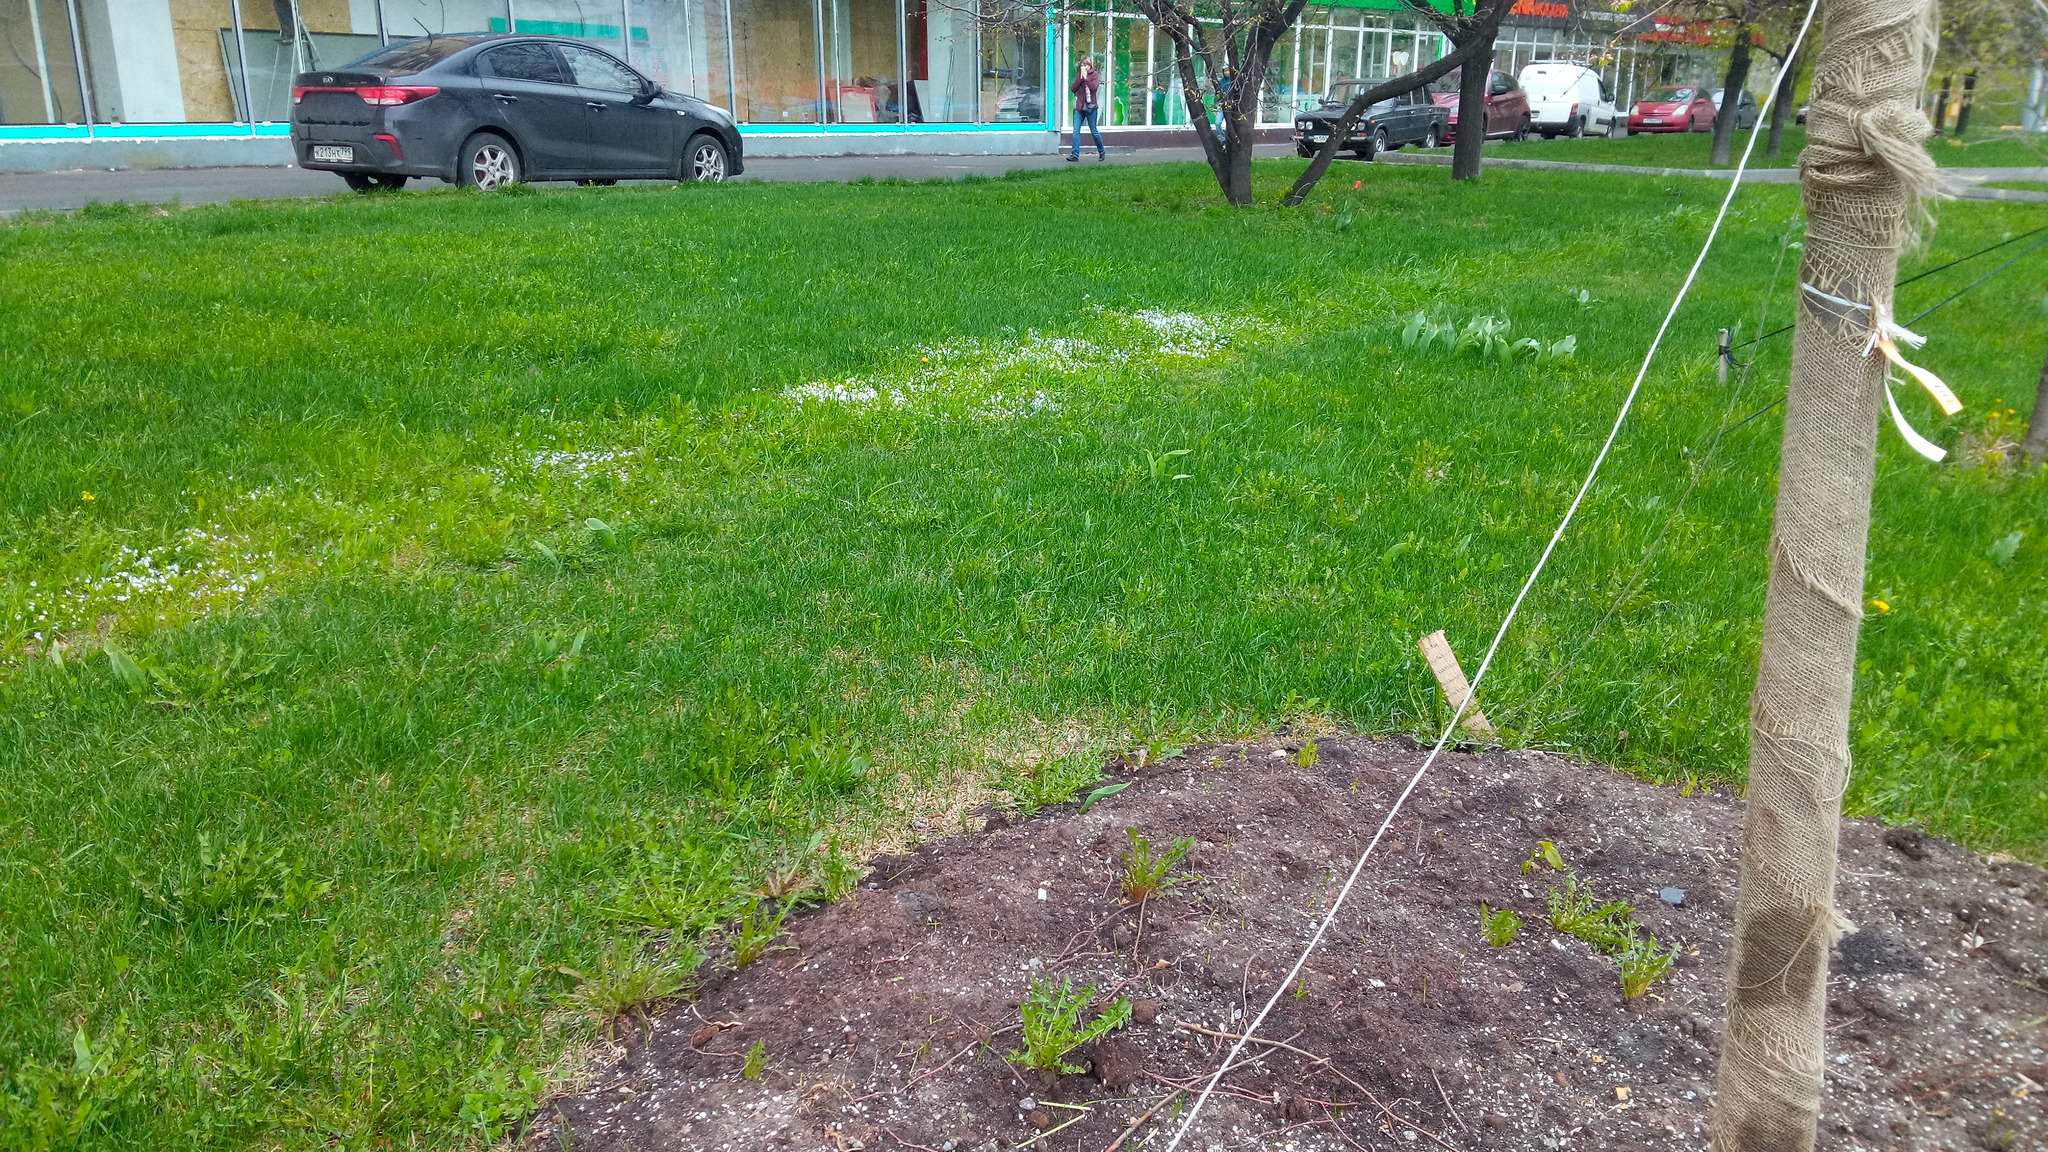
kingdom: Plantae
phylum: Tracheophyta
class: Magnoliopsida
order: Lamiales
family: Plantaginaceae
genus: Veronica
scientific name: Veronica filiformis
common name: Slender speedwell
